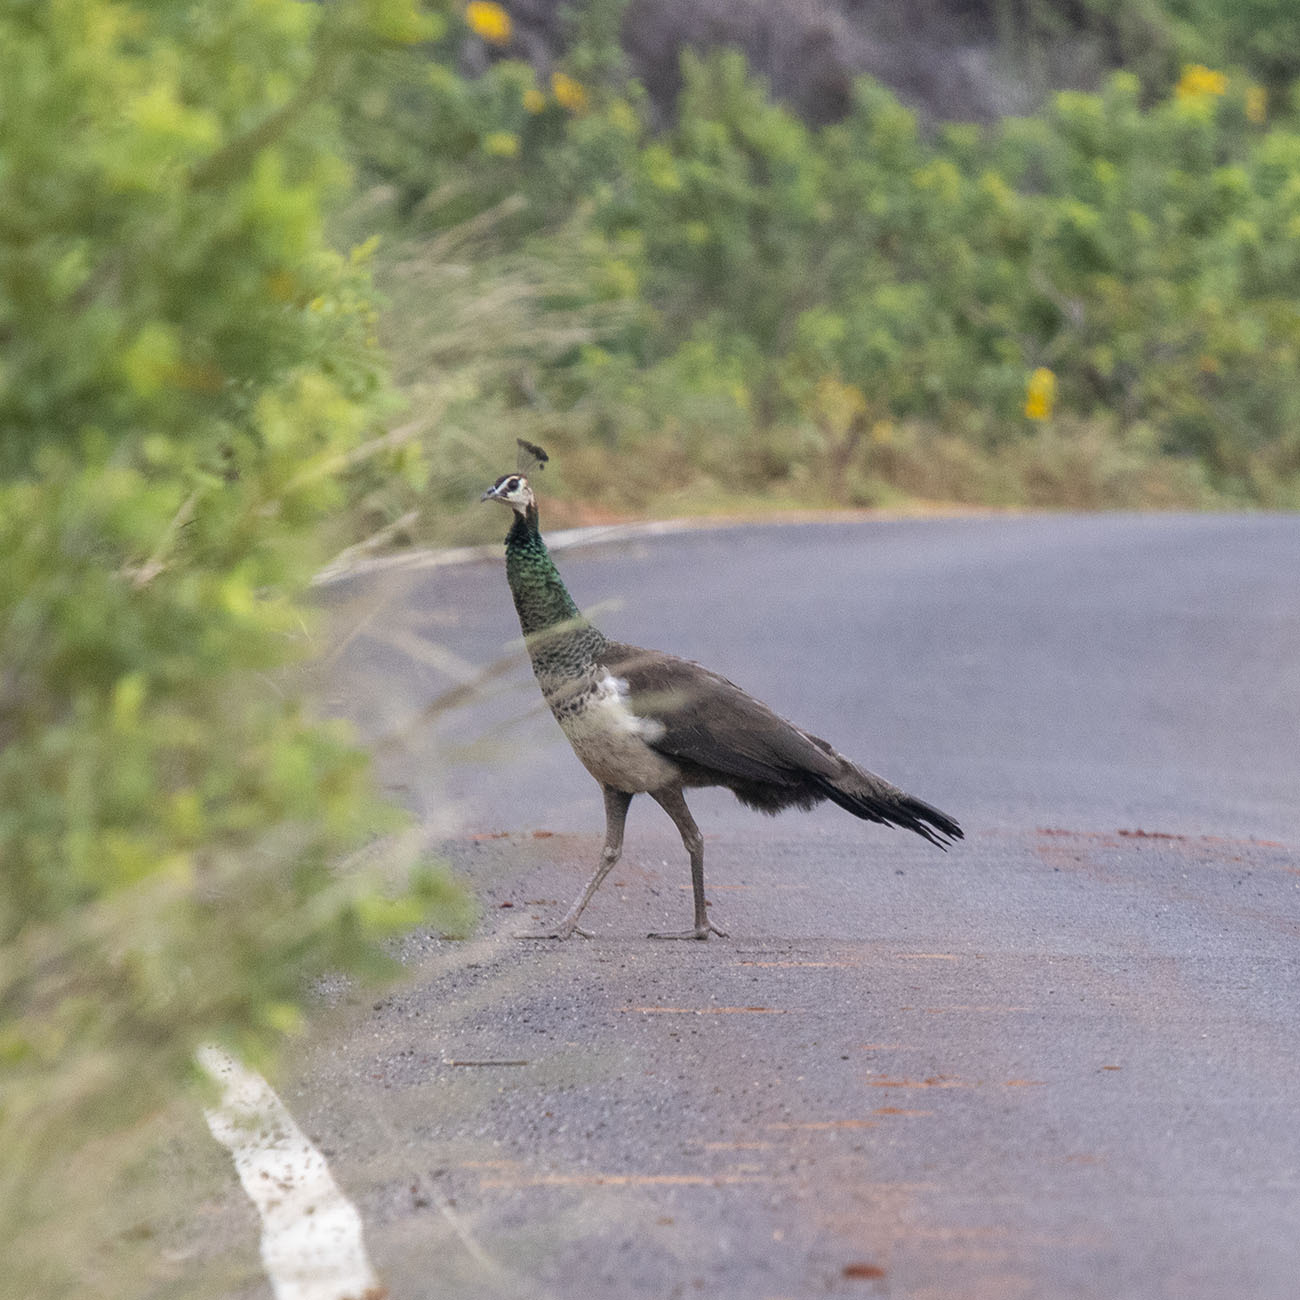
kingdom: Animalia
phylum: Chordata
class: Aves
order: Galliformes
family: Phasianidae
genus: Pavo
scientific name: Pavo cristatus
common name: Indian peafowl
